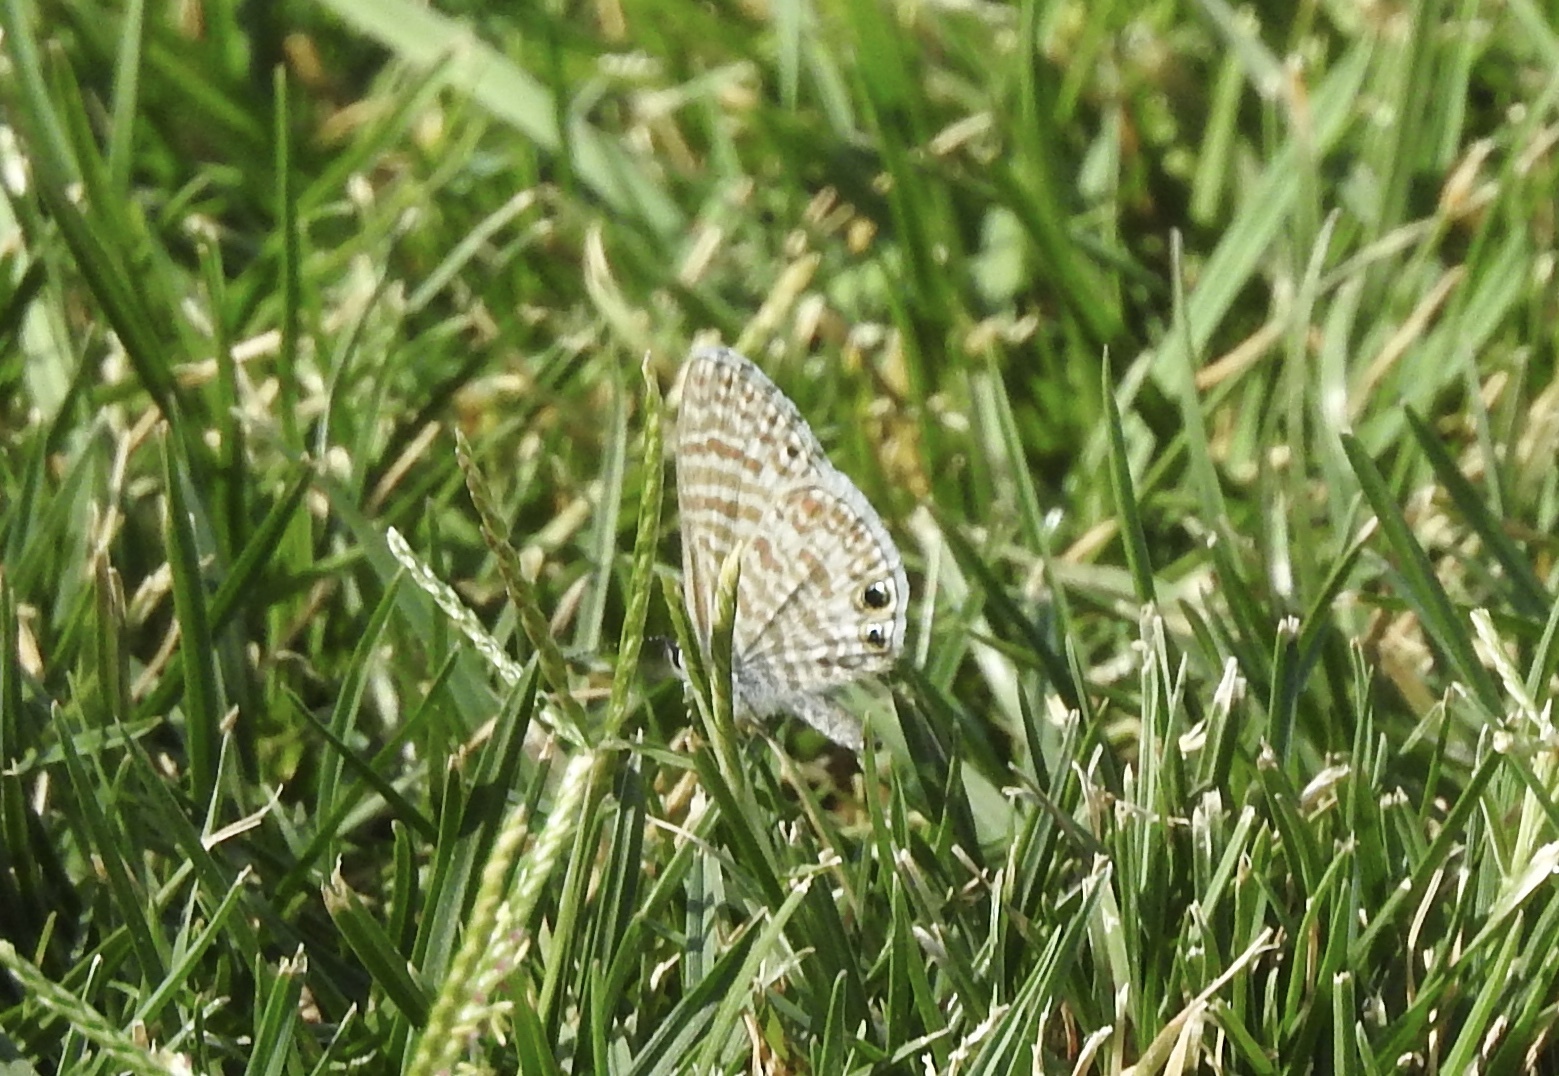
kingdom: Animalia
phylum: Arthropoda
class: Insecta
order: Lepidoptera
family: Lycaenidae
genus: Leptotes
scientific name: Leptotes marina
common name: Marine blue
